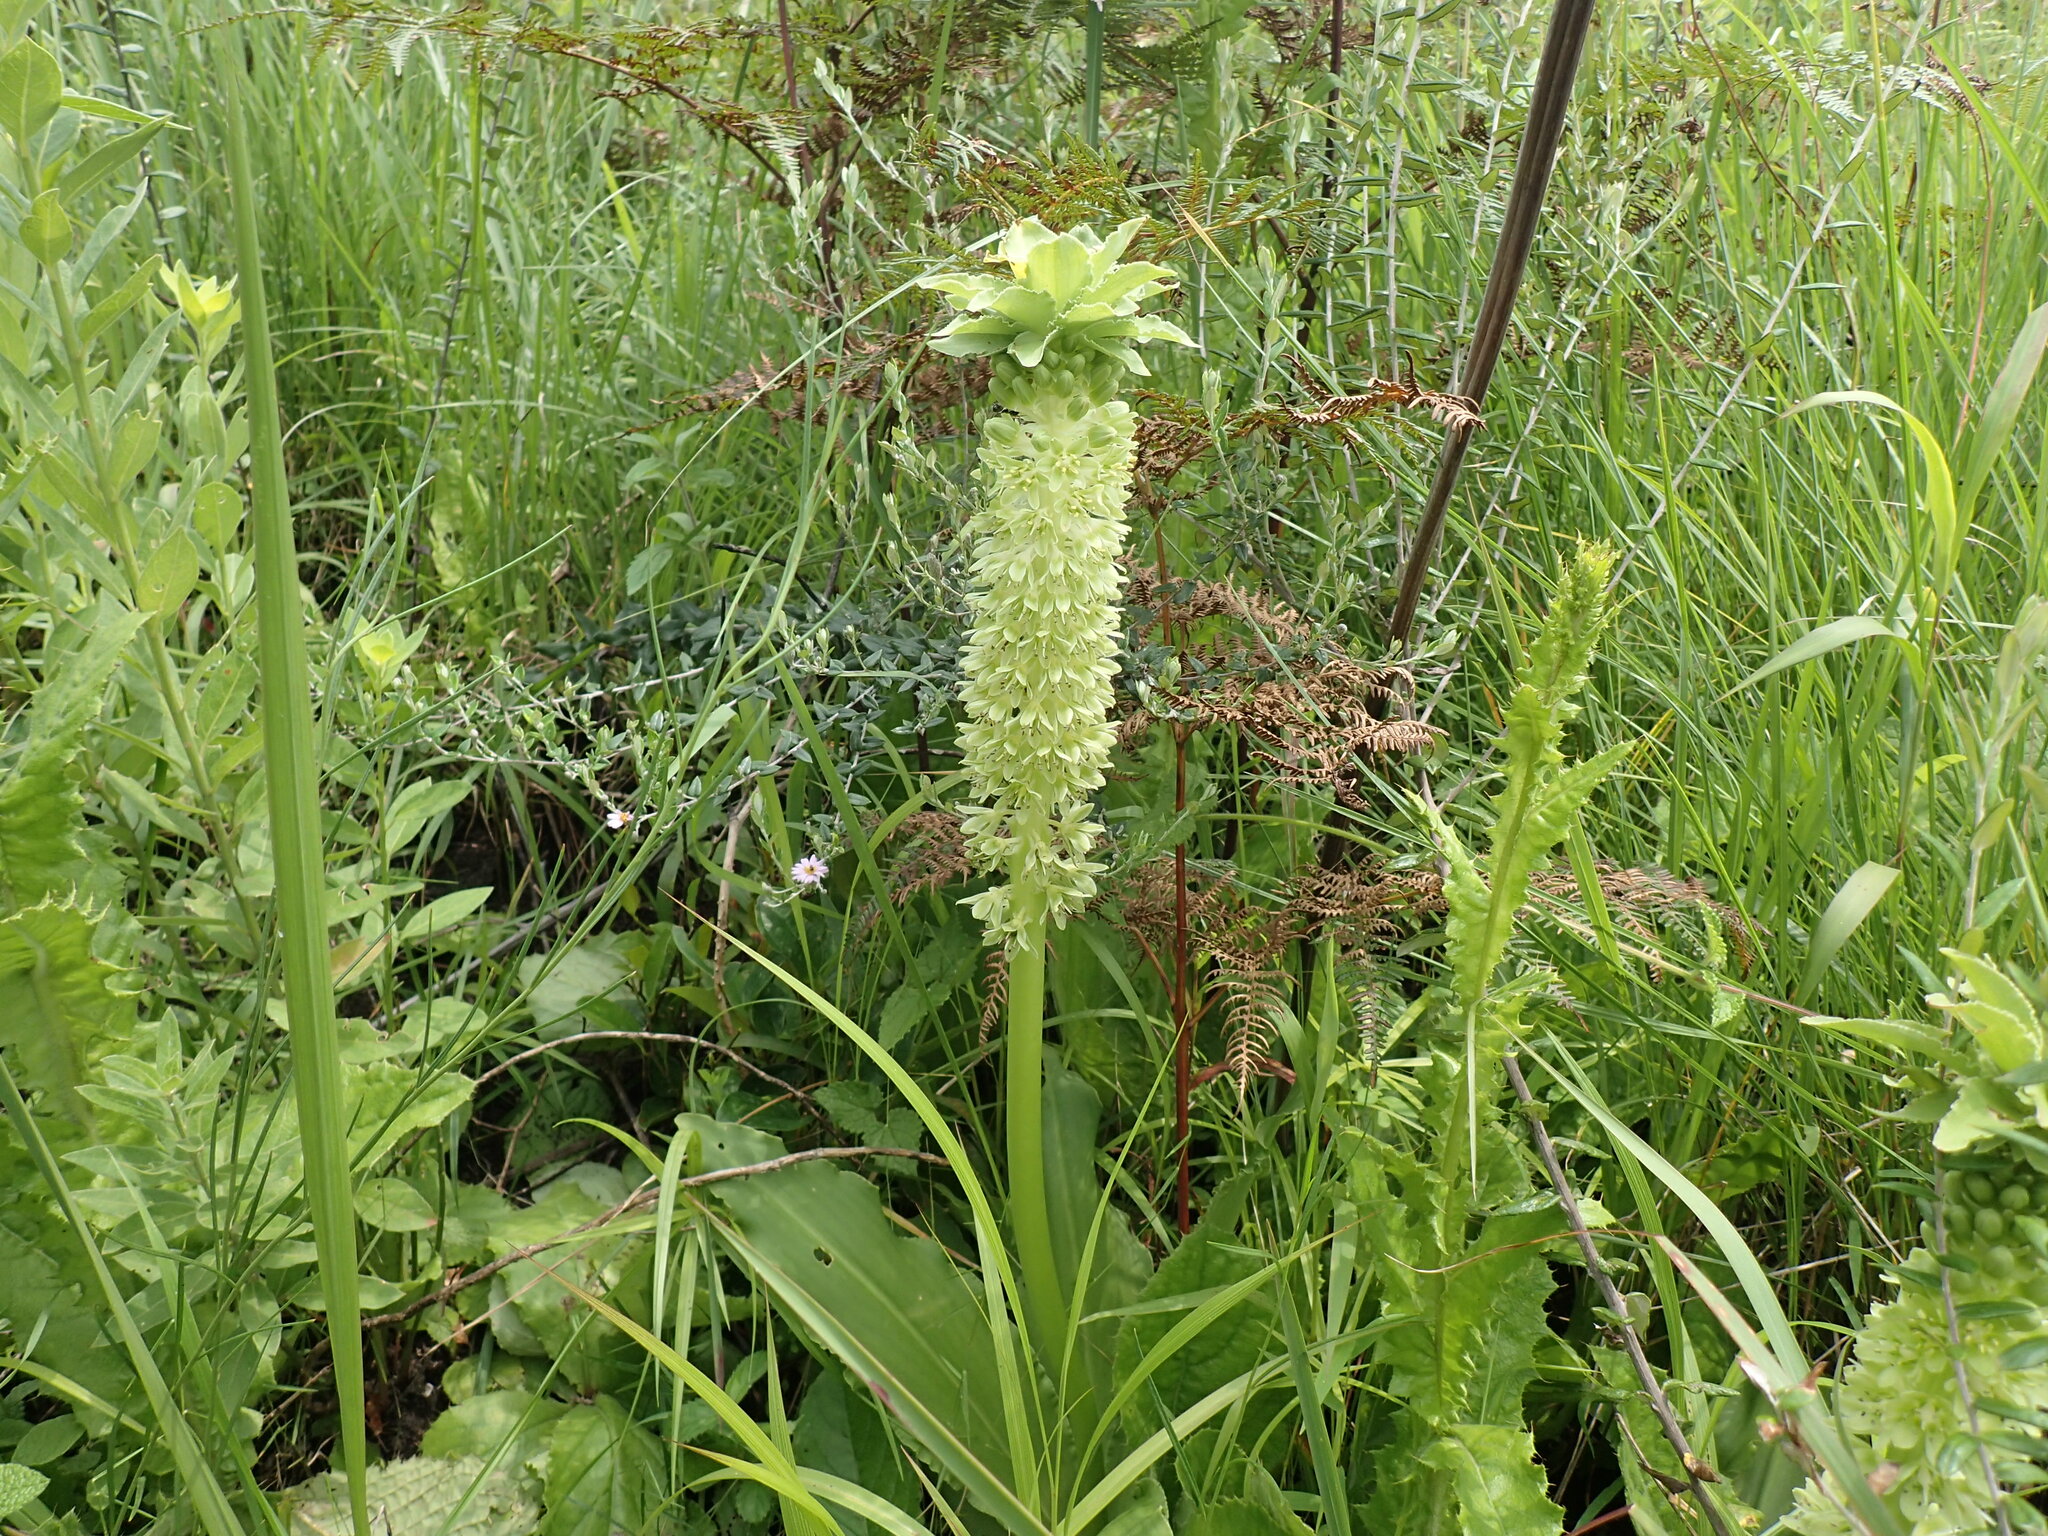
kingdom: Plantae
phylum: Tracheophyta
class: Liliopsida
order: Asparagales
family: Asparagaceae
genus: Eucomis
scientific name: Eucomis autumnalis
